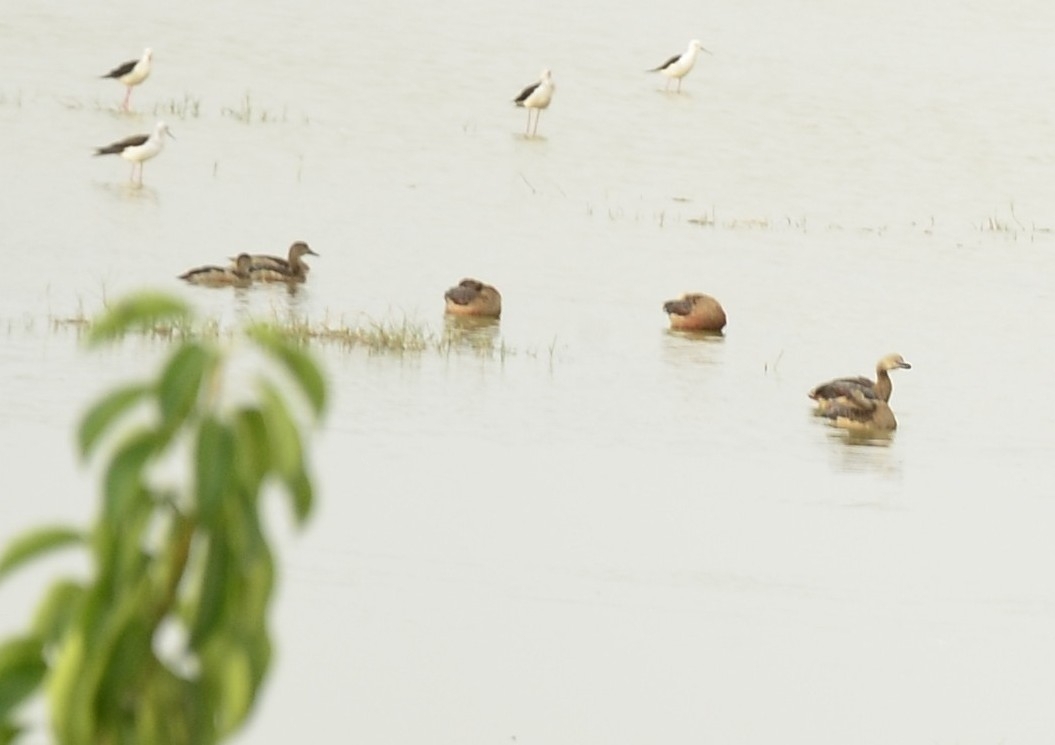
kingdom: Animalia
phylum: Chordata
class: Aves
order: Anseriformes
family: Anatidae
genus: Dendrocygna
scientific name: Dendrocygna javanica
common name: Lesser whistling-duck
